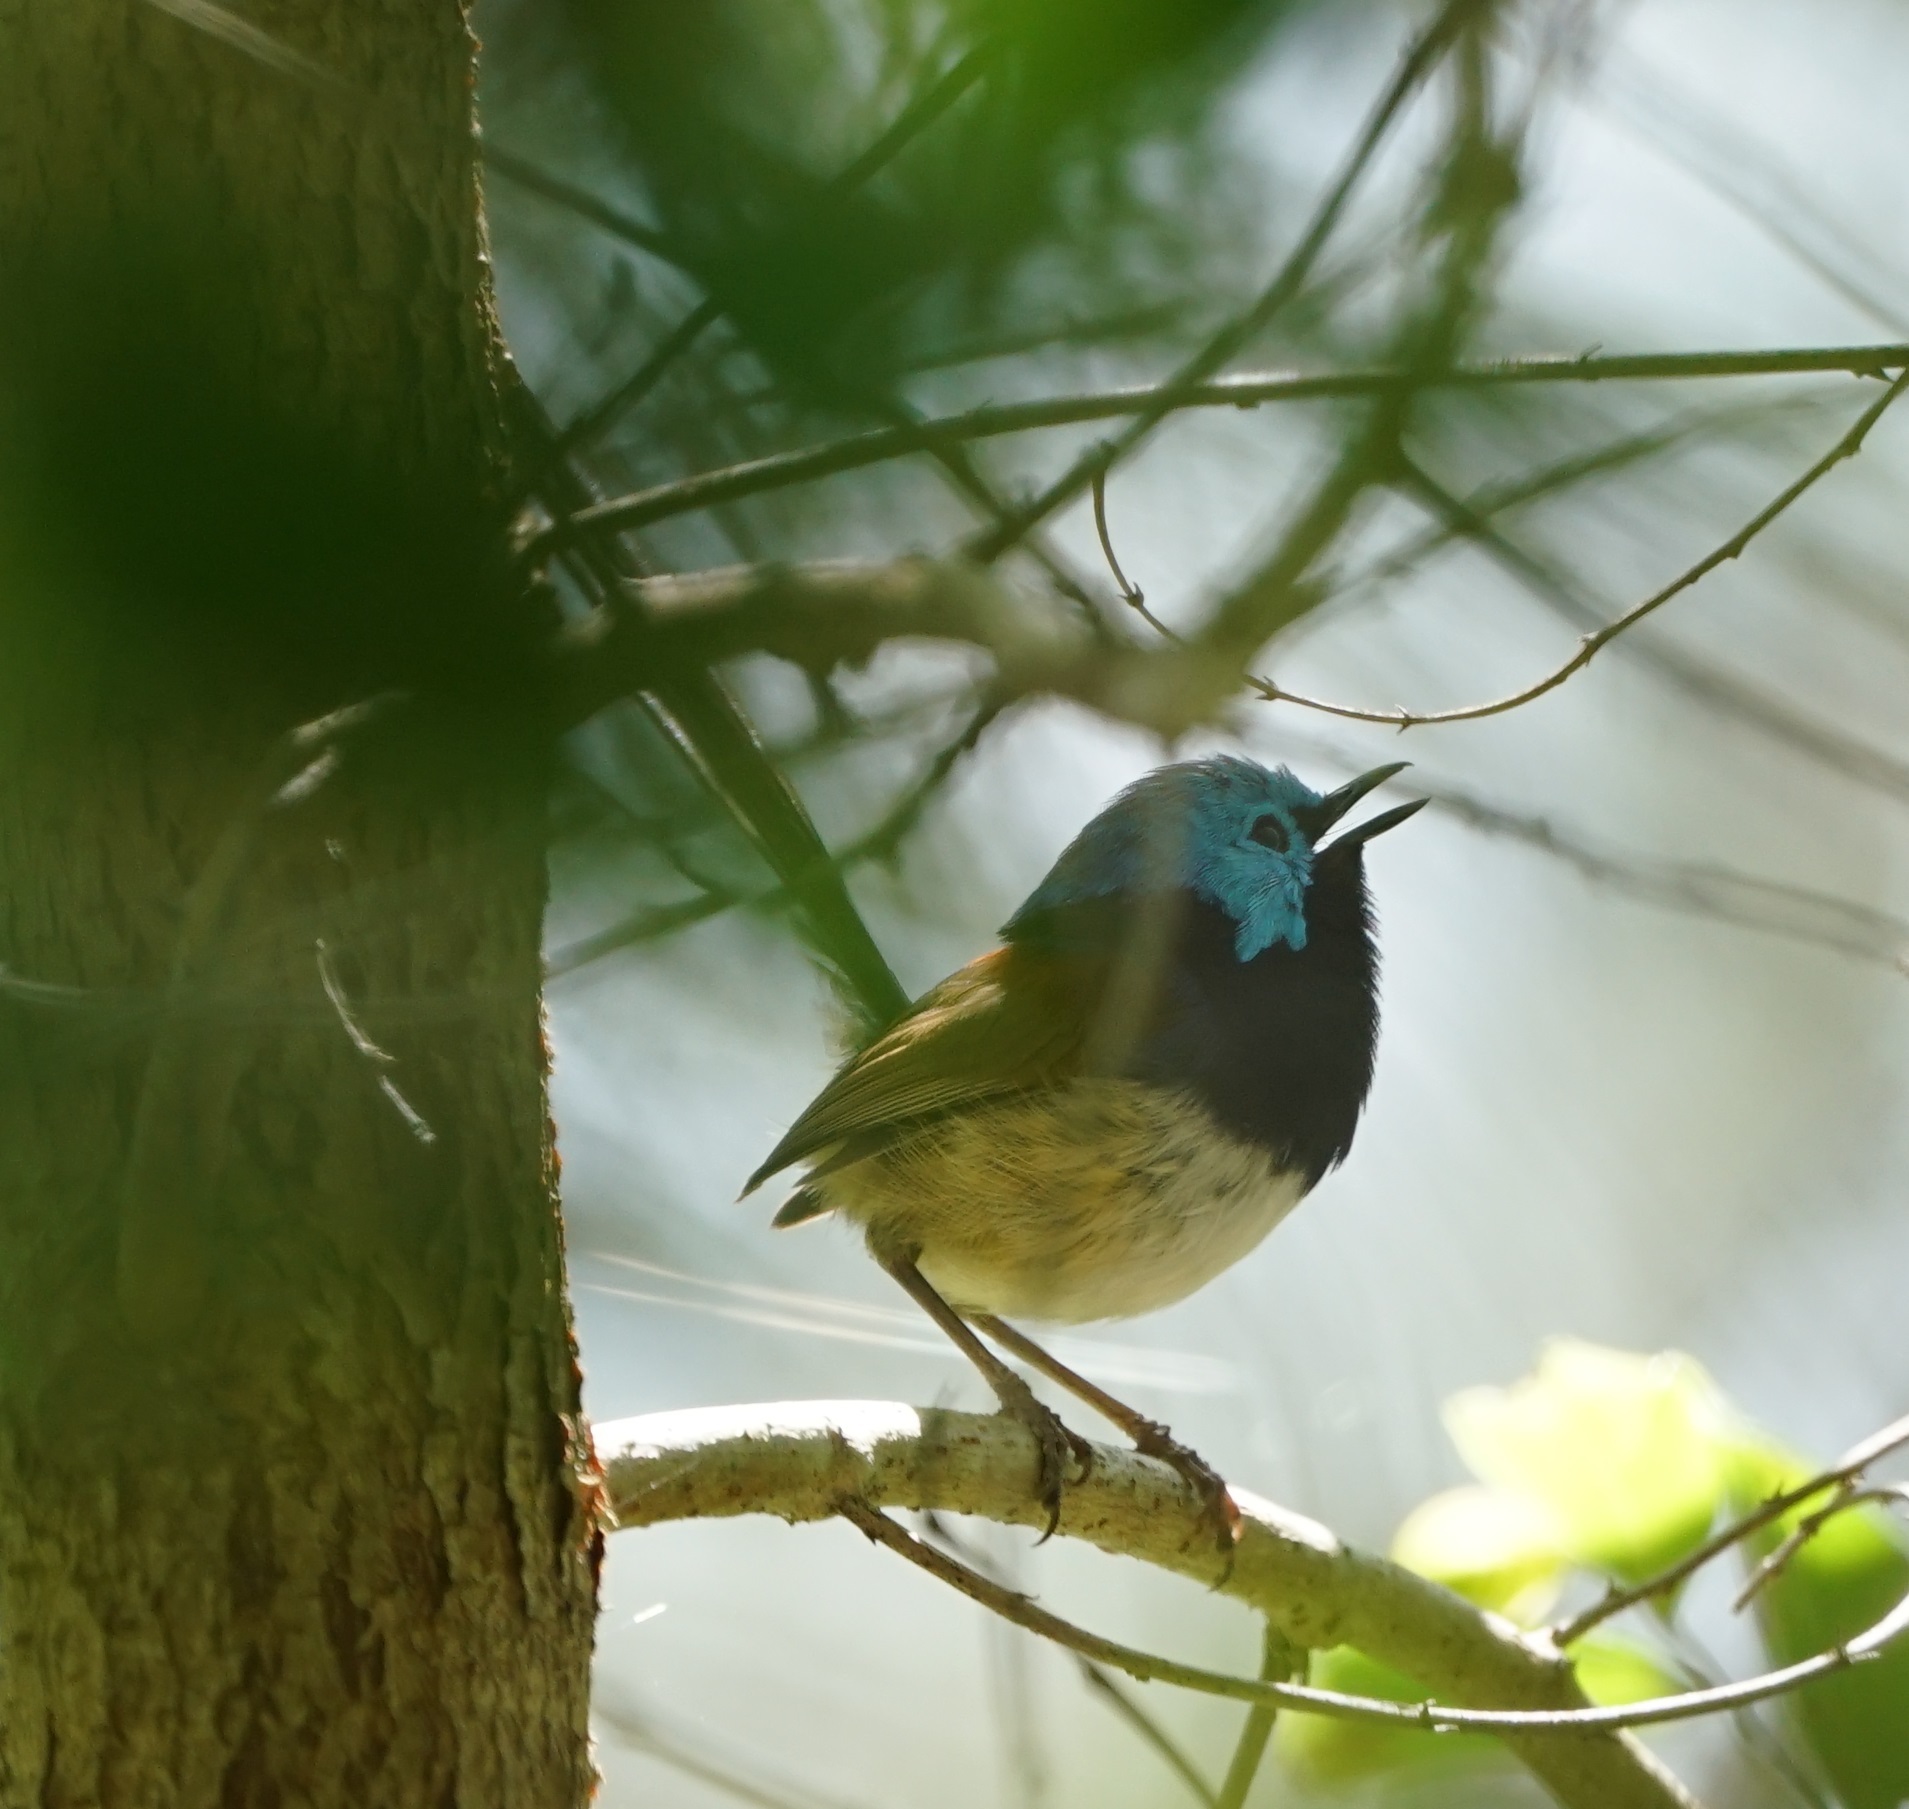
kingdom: Animalia
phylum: Chordata
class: Aves
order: Passeriformes
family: Maluridae
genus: Malurus
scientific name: Malurus lamberti
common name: Variegated fairywren
